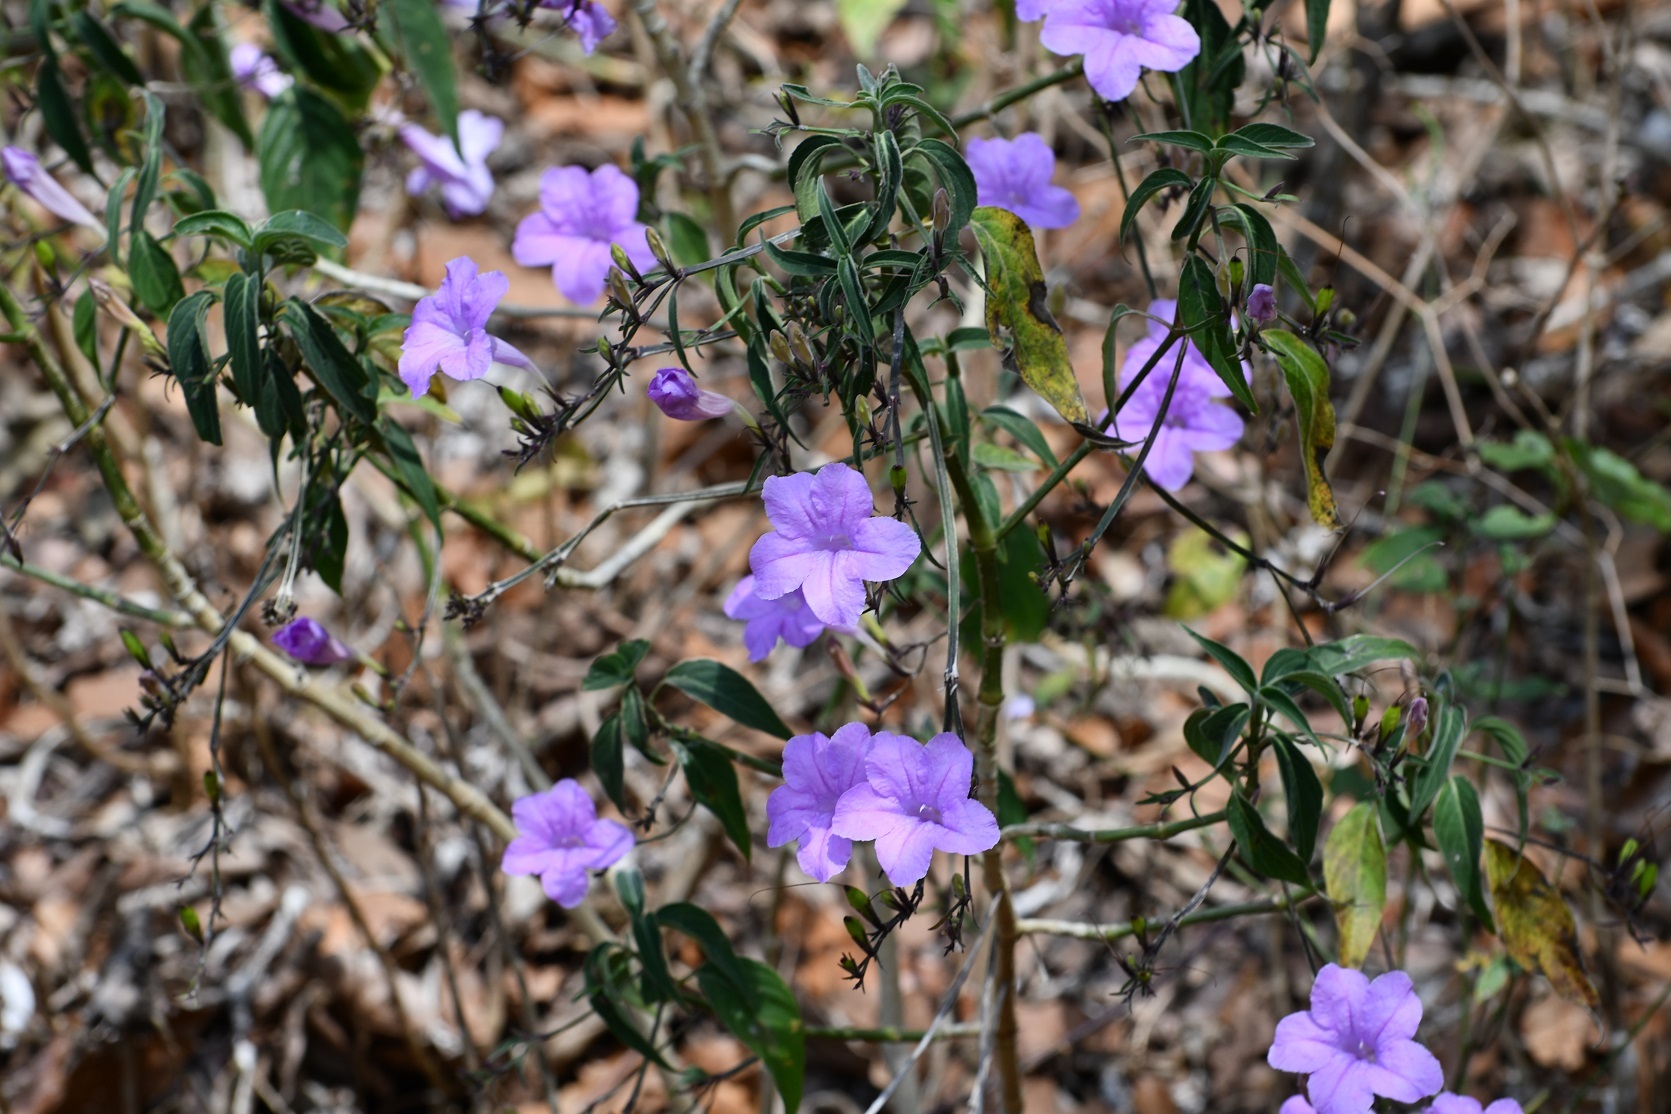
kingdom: Plantae
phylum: Tracheophyta
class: Magnoliopsida
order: Lamiales
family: Acanthaceae
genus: Ruellia
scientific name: Ruellia breedlovei
